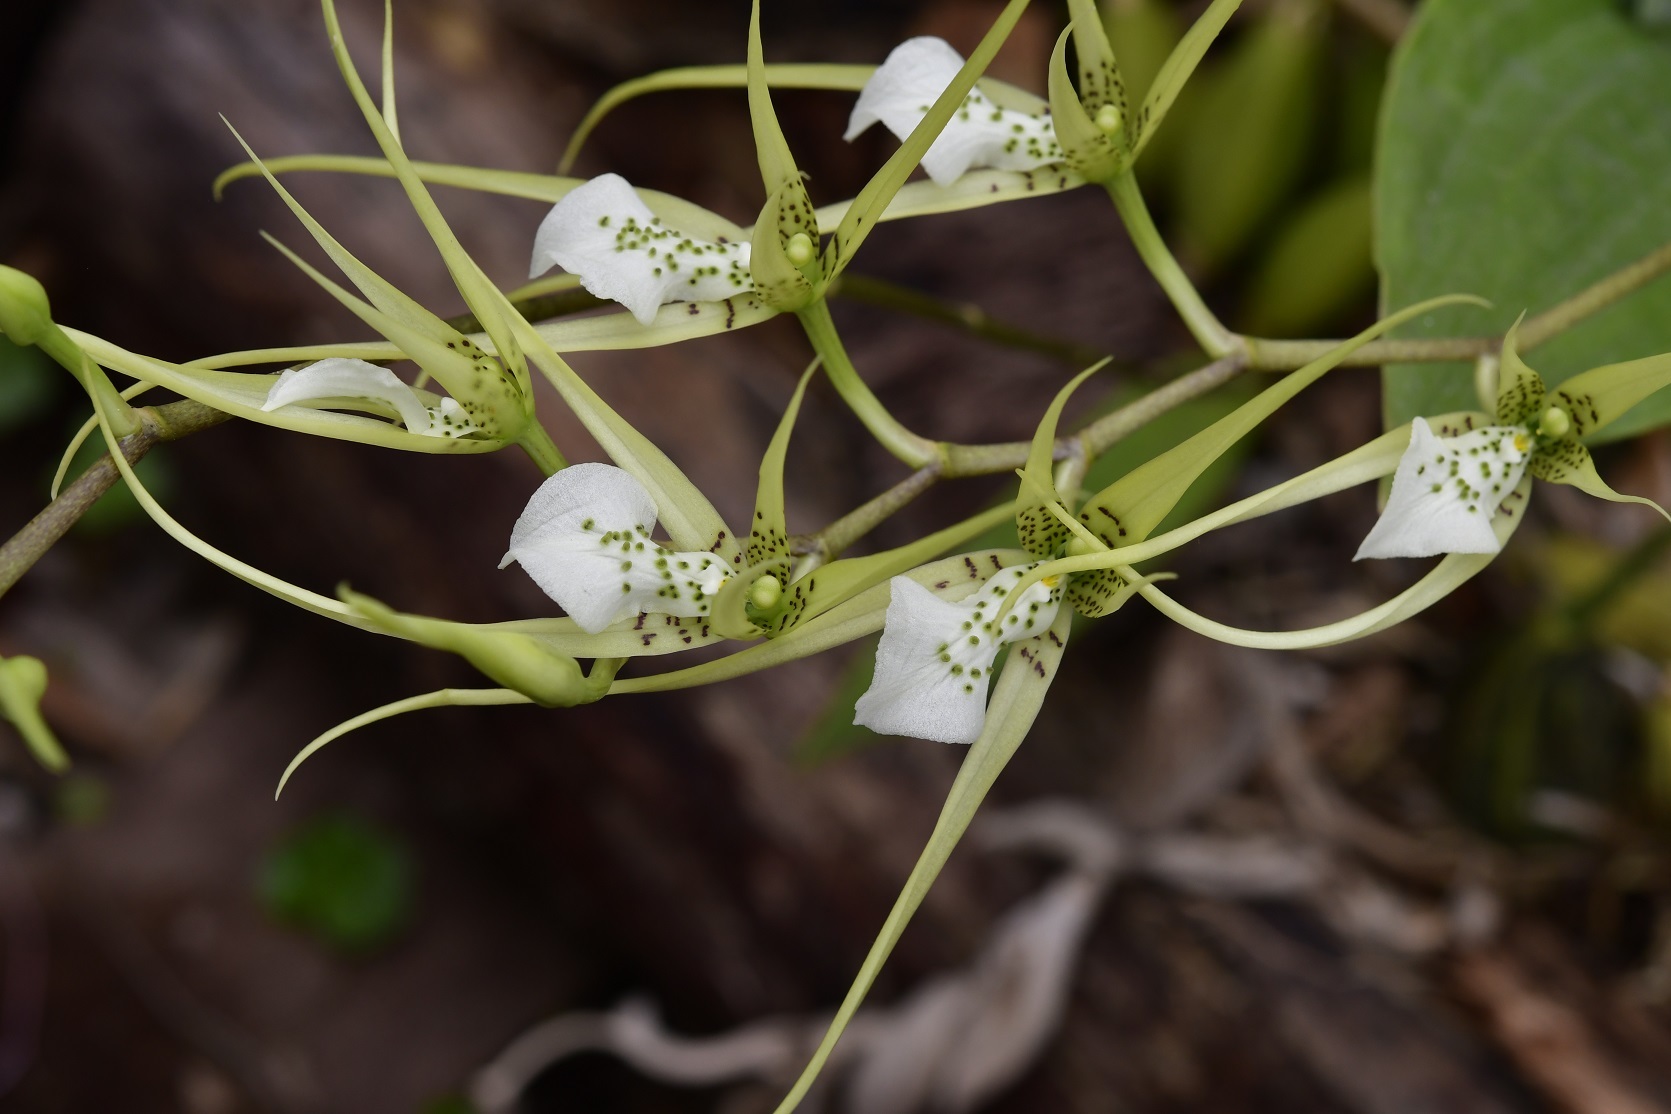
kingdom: Plantae
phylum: Tracheophyta
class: Liliopsida
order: Asparagales
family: Orchidaceae
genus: Brassia
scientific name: Brassia verrucosa
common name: Warty brassia
